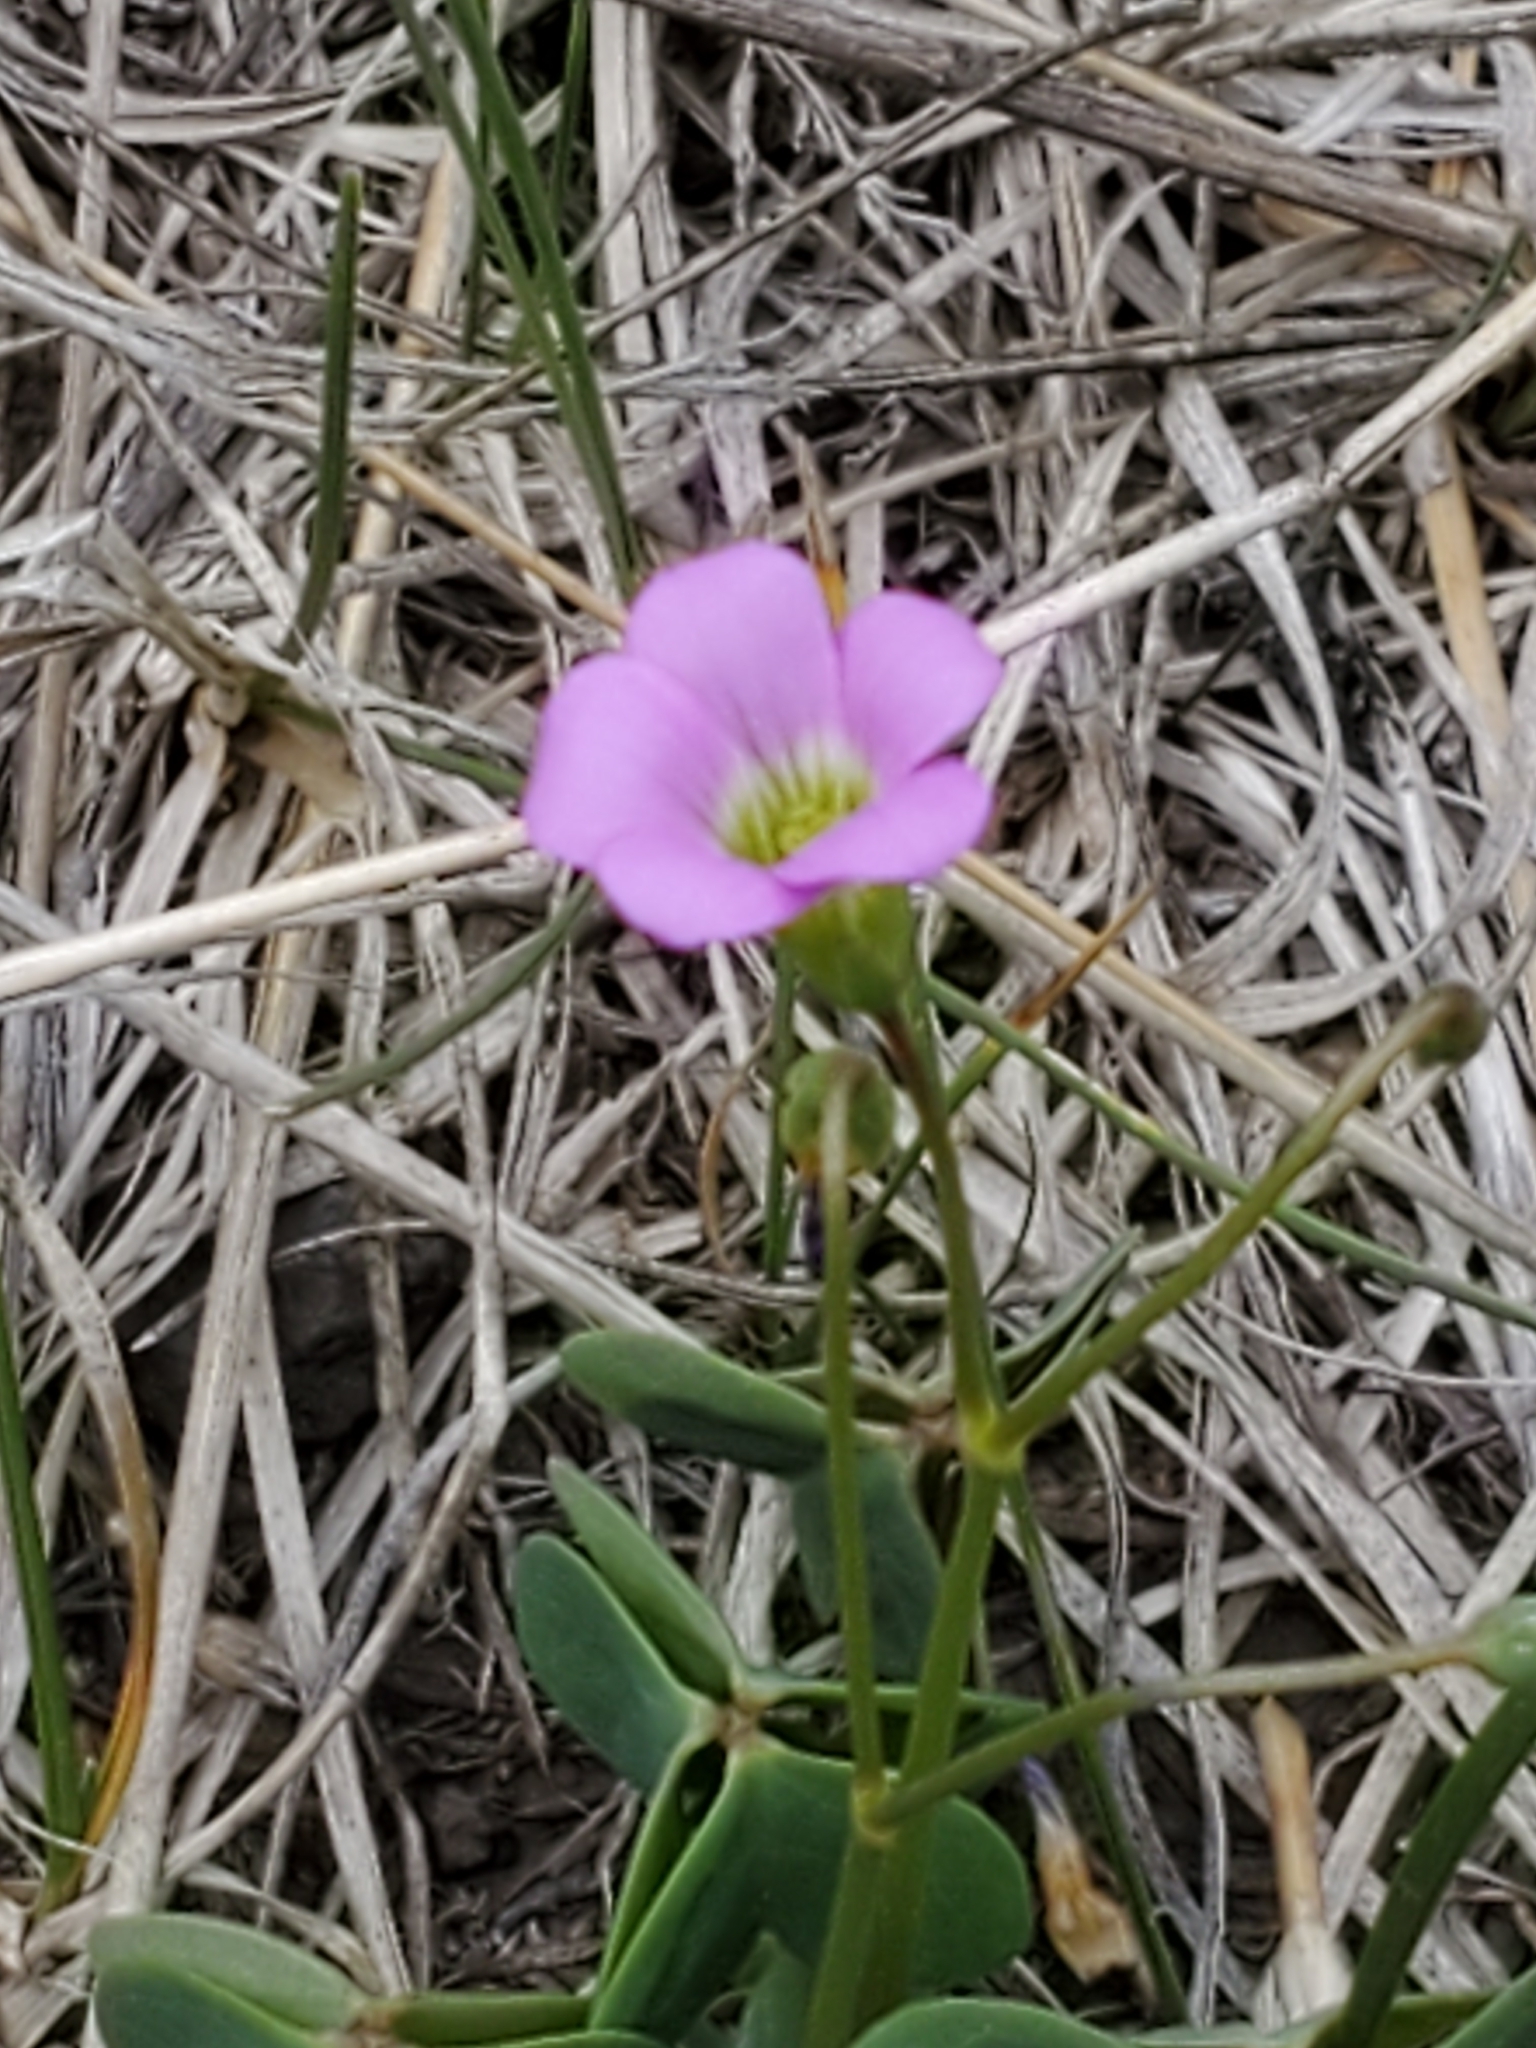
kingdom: Plantae
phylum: Tracheophyta
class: Magnoliopsida
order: Oxalidales
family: Oxalidaceae
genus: Oxalis
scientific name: Oxalis metcalfei
